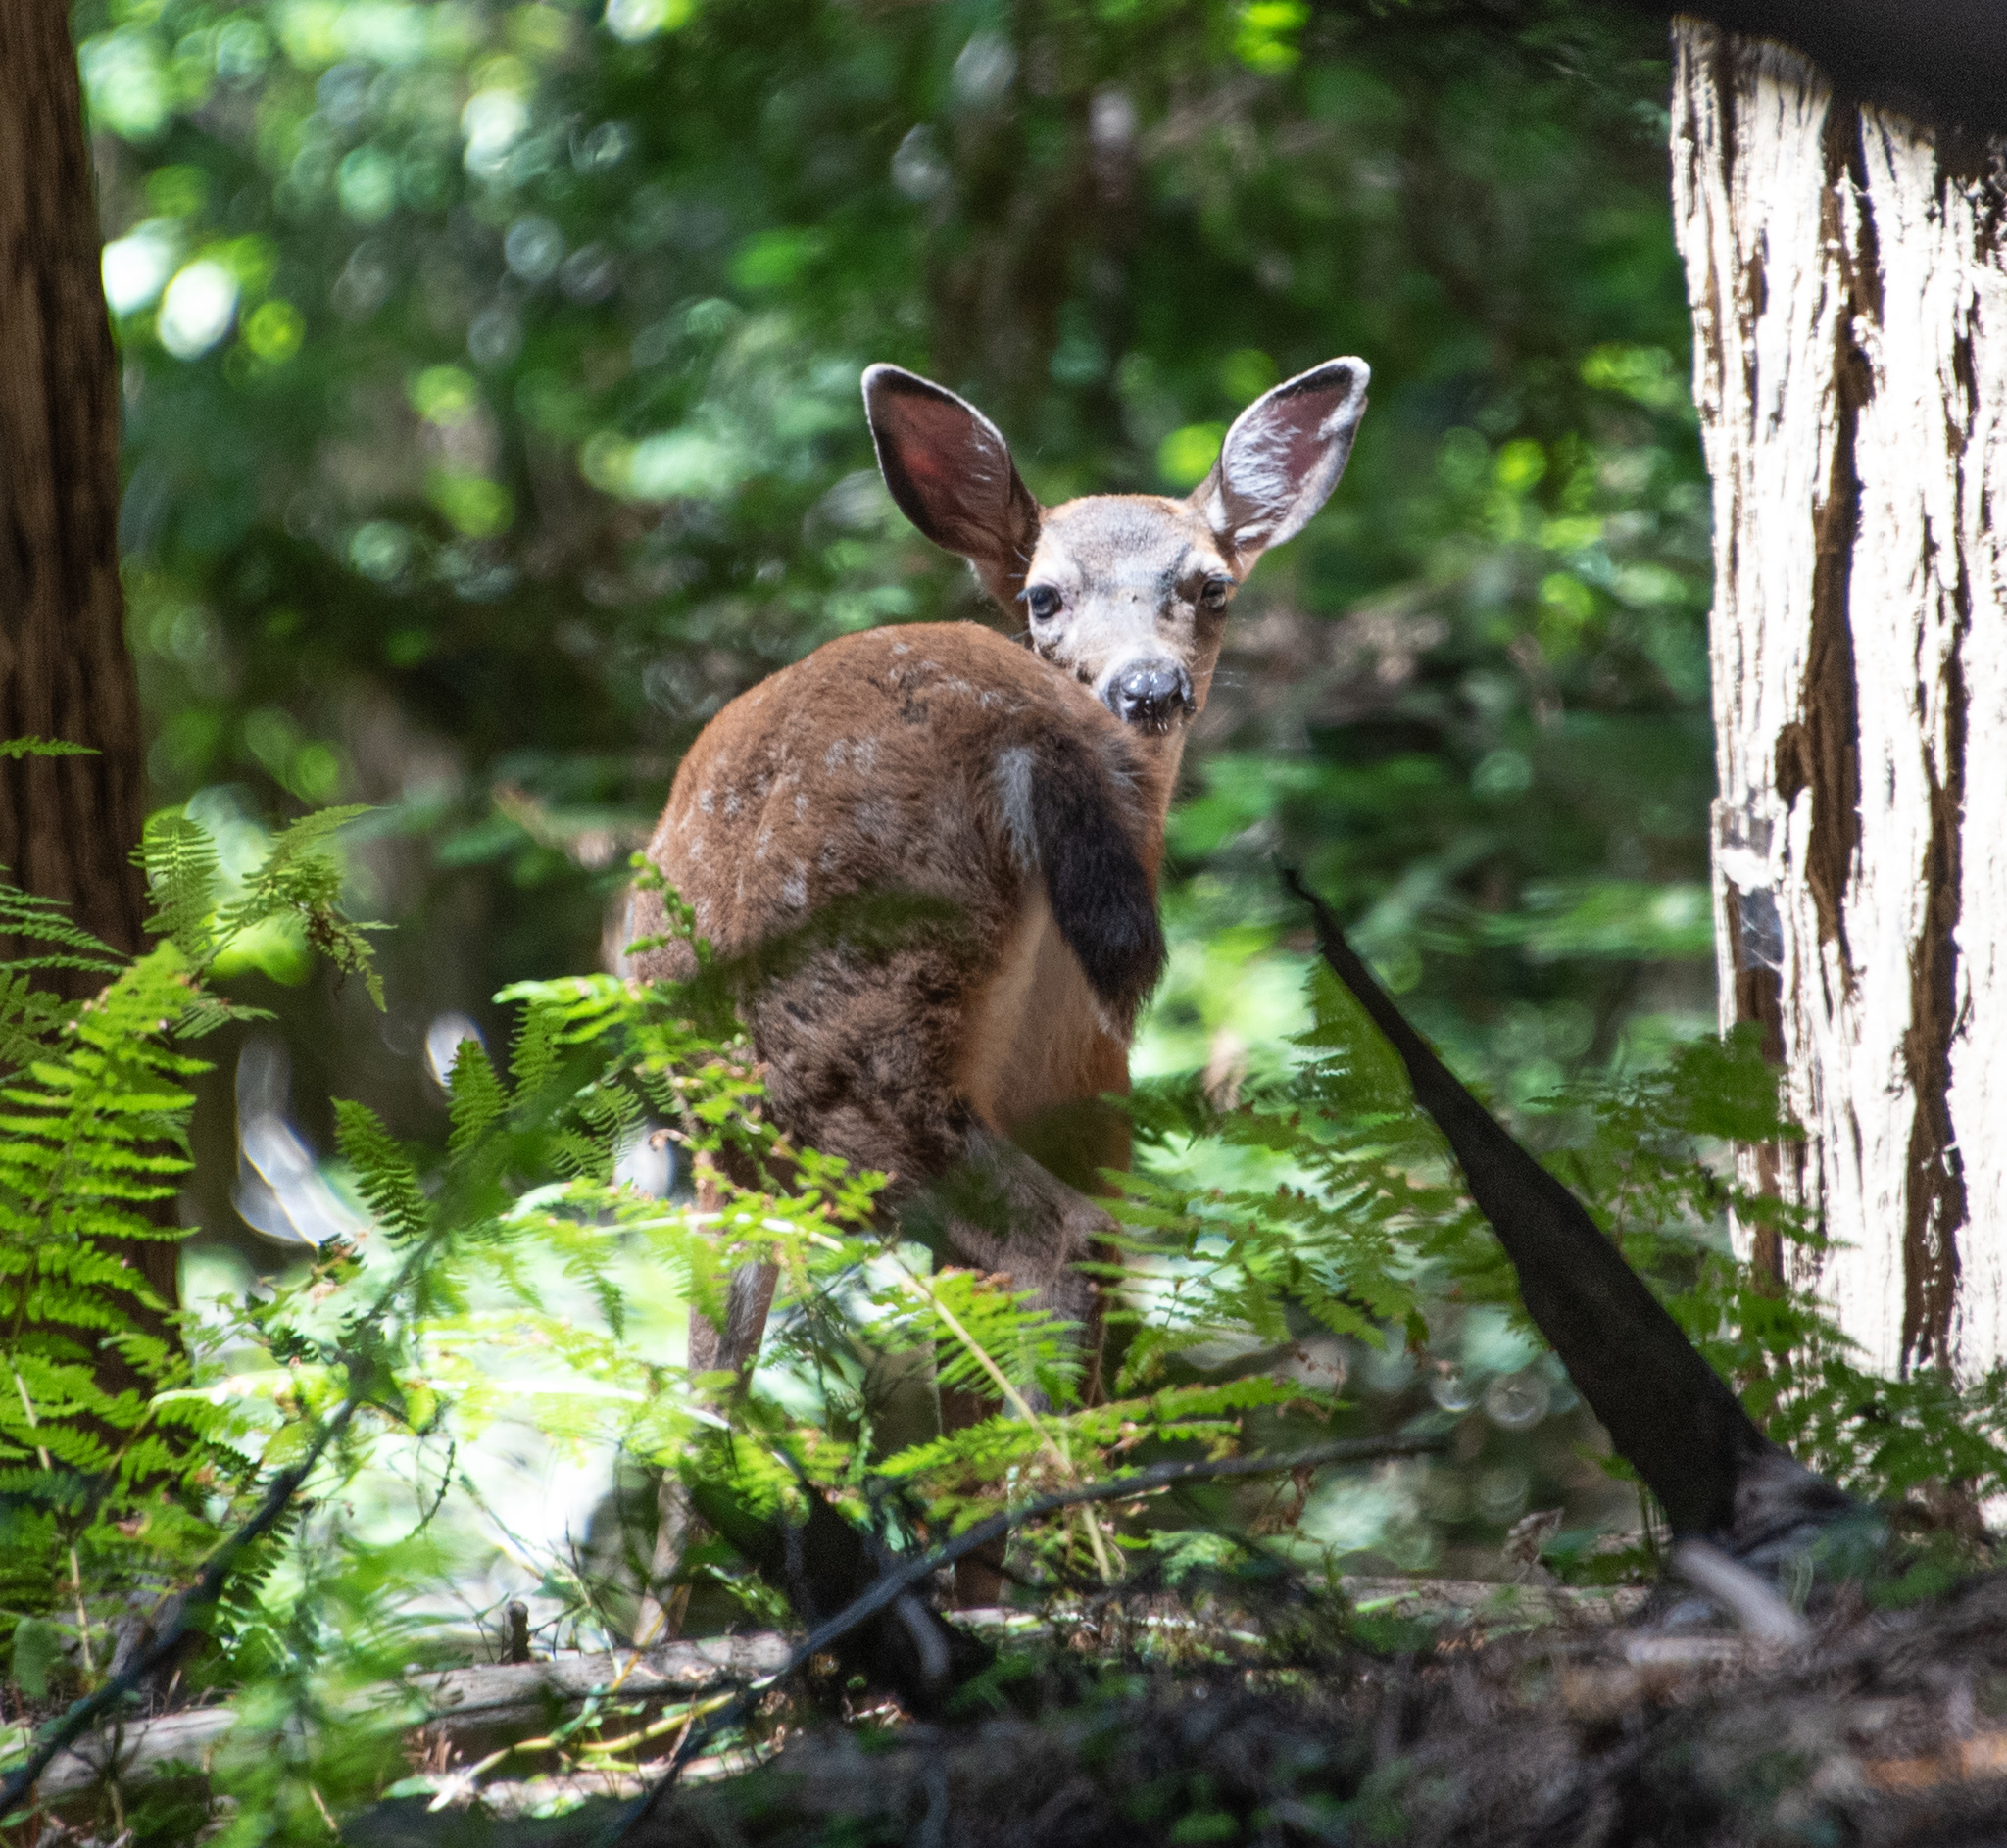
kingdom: Animalia
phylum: Chordata
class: Mammalia
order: Artiodactyla
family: Cervidae
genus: Odocoileus
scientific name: Odocoileus hemionus
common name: Mule deer
